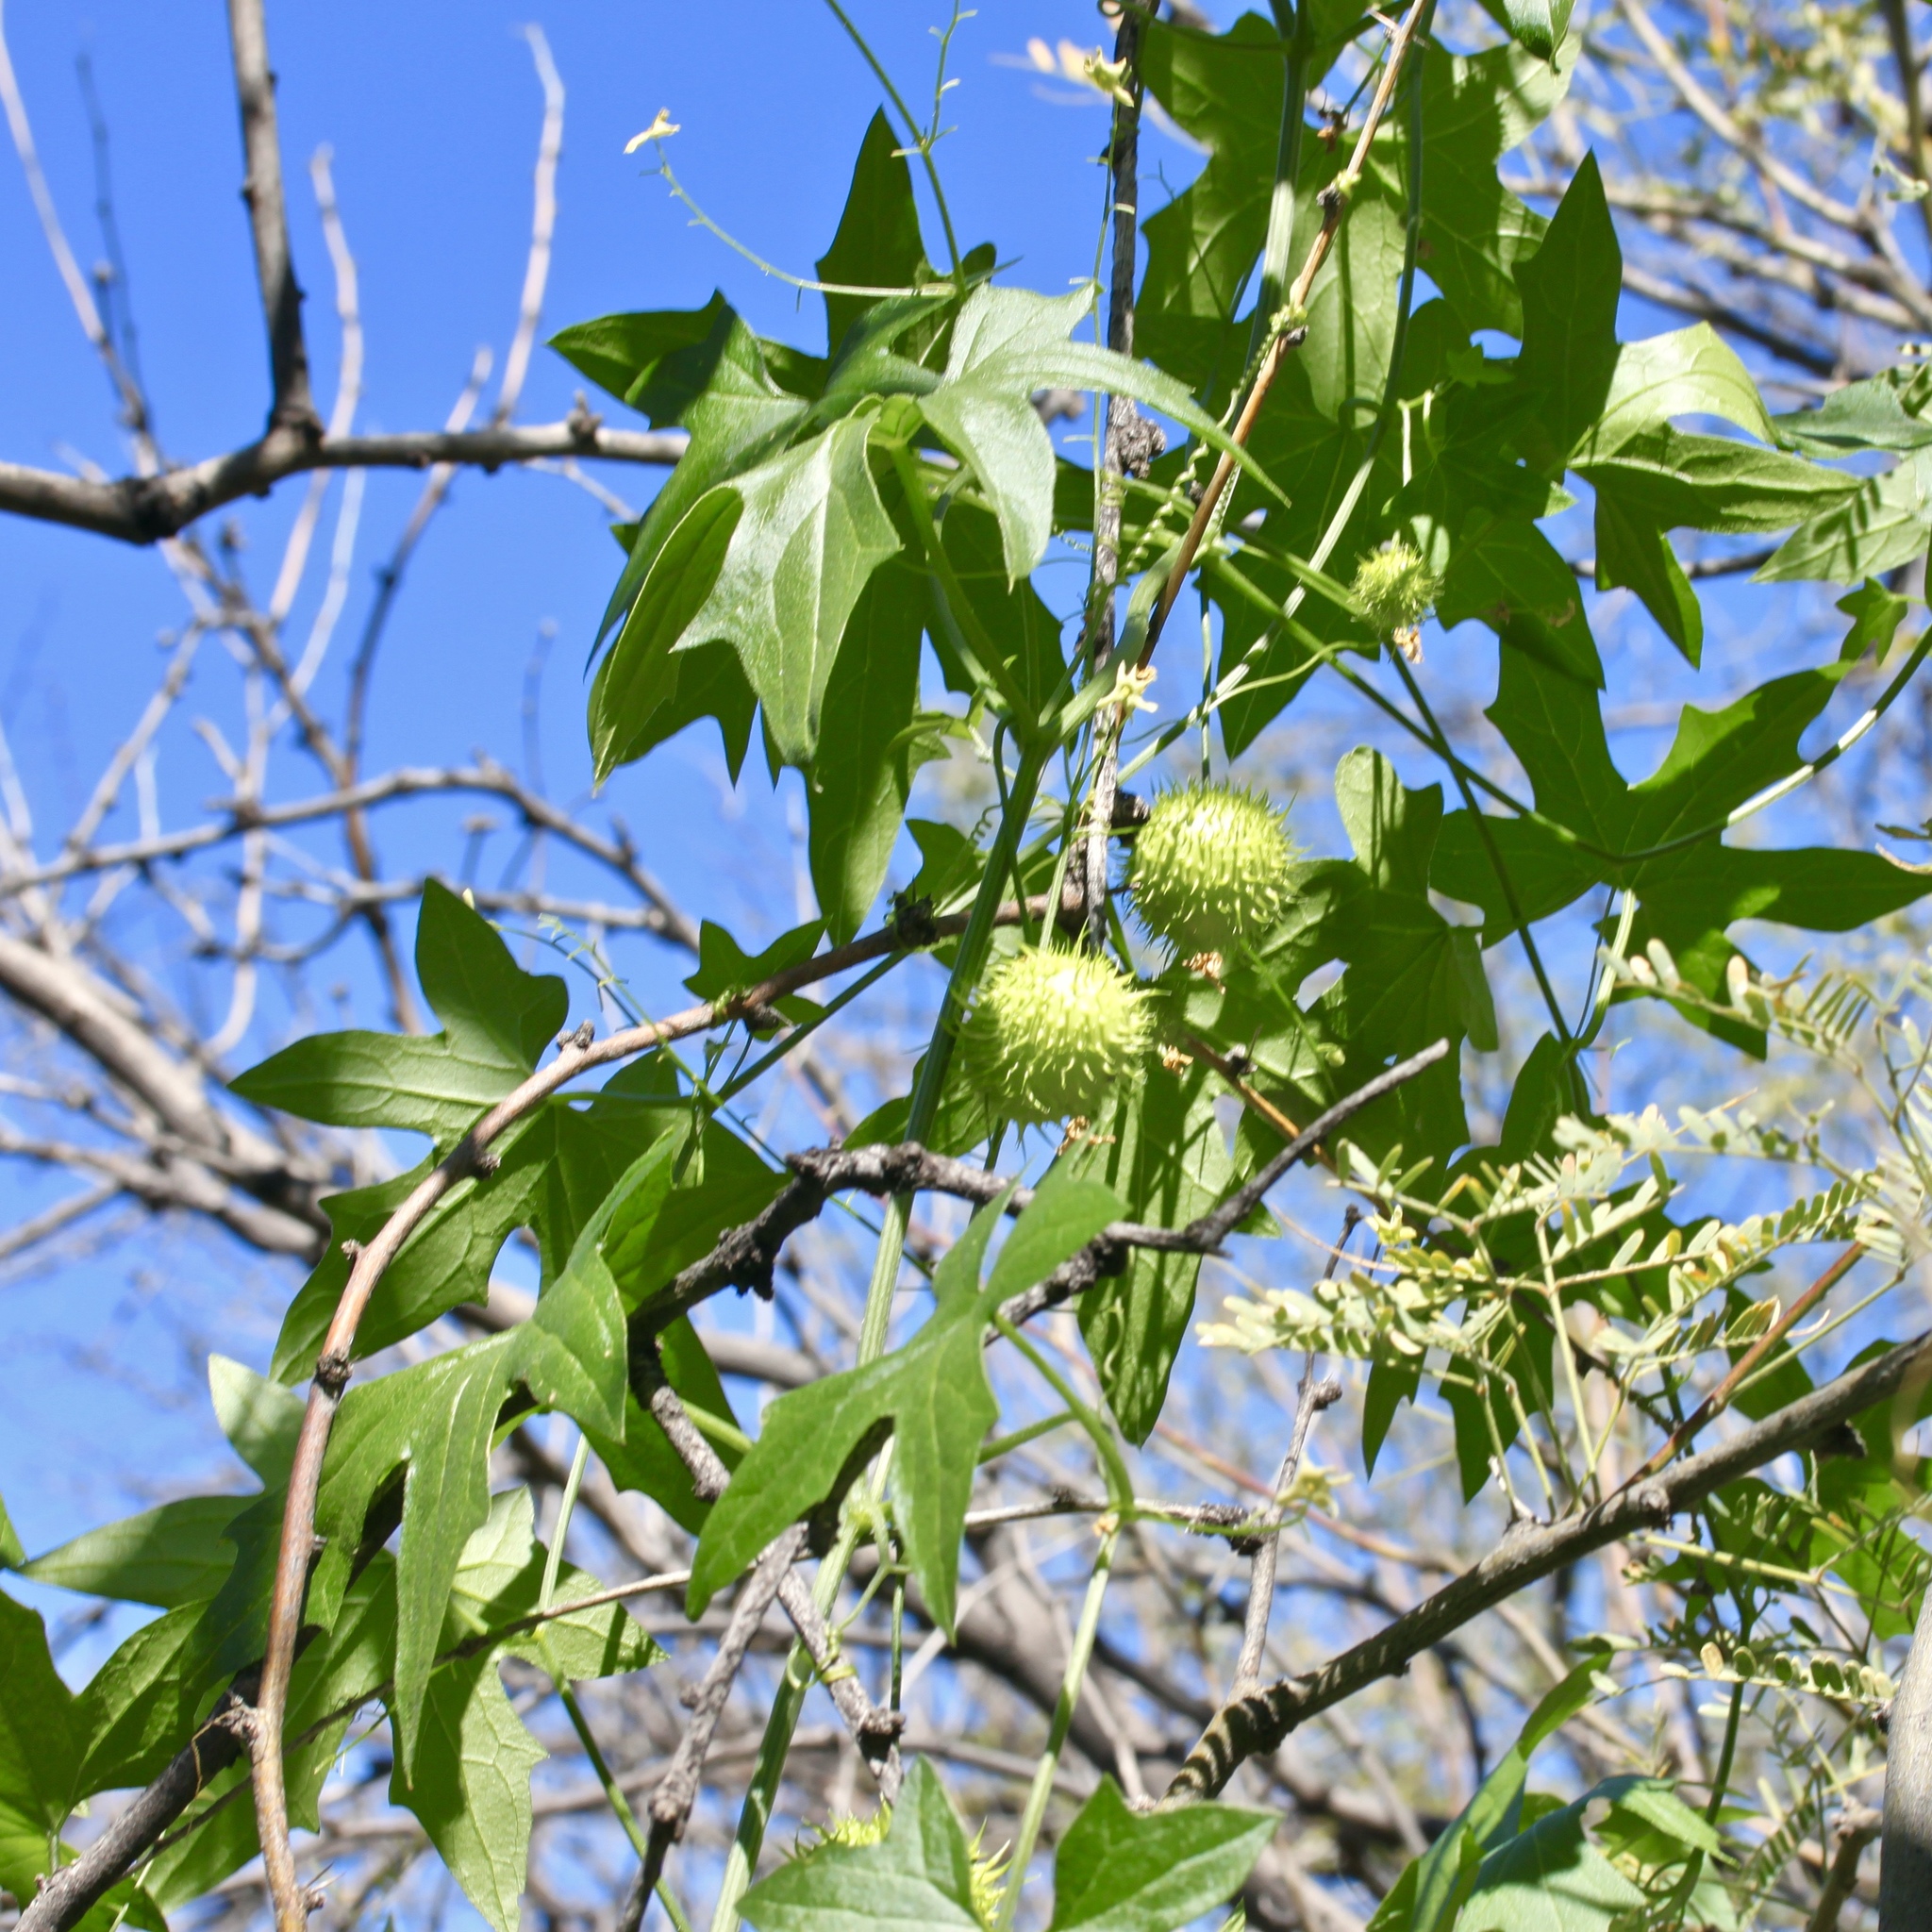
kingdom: Plantae
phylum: Tracheophyta
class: Magnoliopsida
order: Cucurbitales
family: Cucurbitaceae
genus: Marah
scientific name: Marah gilensis
